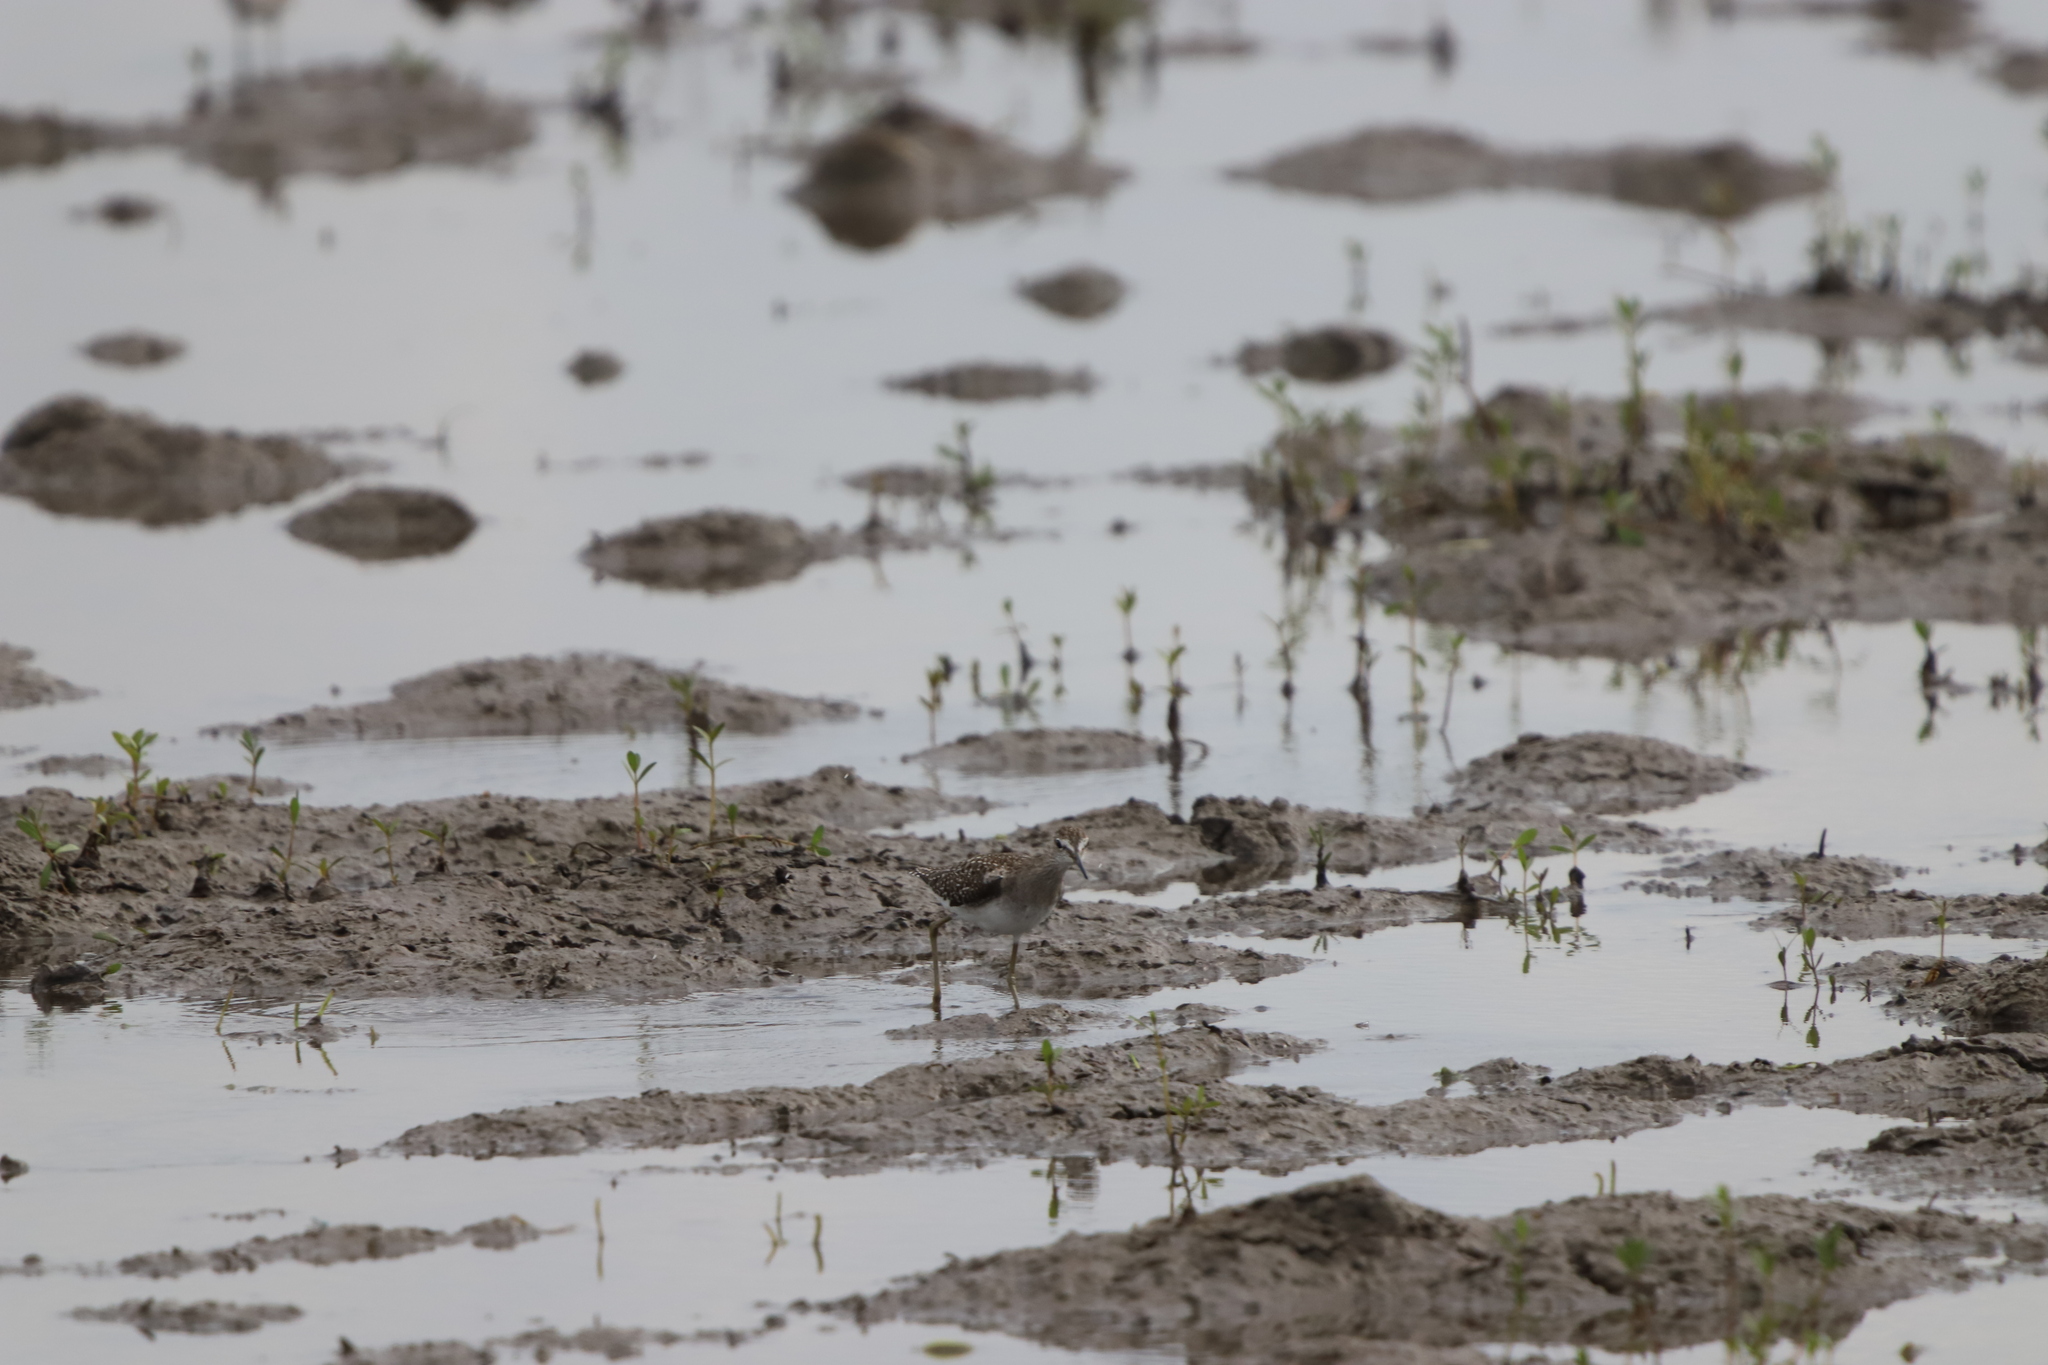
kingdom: Animalia
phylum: Chordata
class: Aves
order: Charadriiformes
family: Scolopacidae
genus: Tringa
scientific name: Tringa glareola
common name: Wood sandpiper
